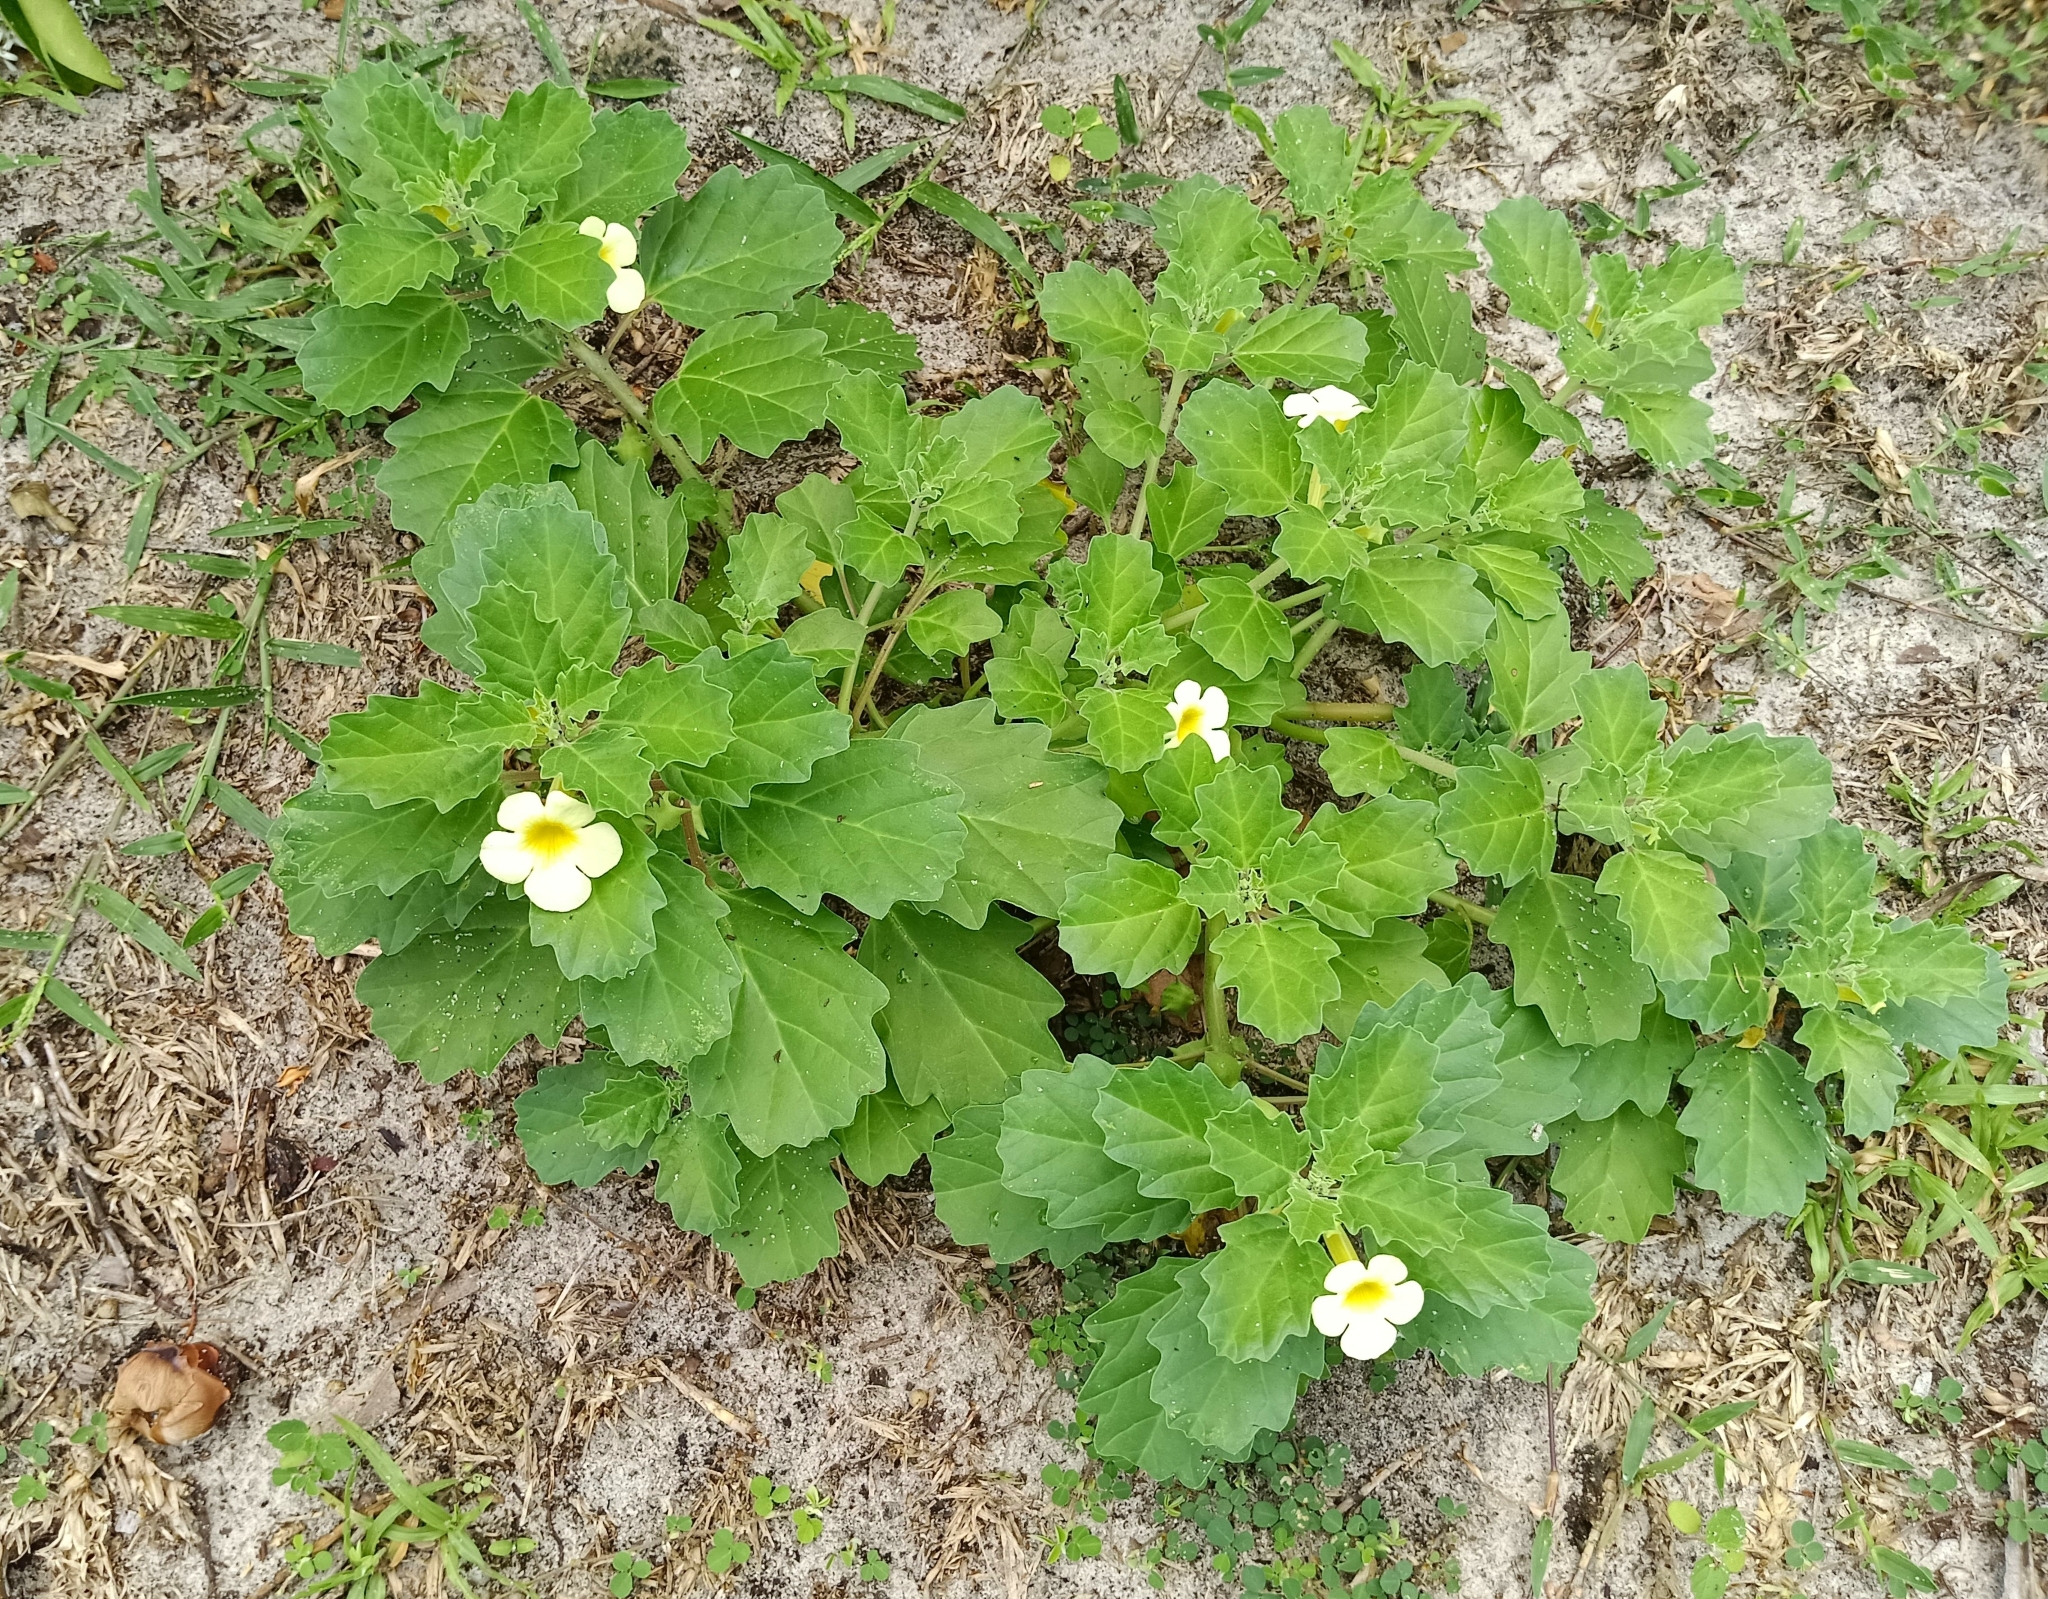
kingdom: Plantae
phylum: Tracheophyta
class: Magnoliopsida
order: Lamiales
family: Pedaliaceae
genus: Pedalium
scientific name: Pedalium murex
